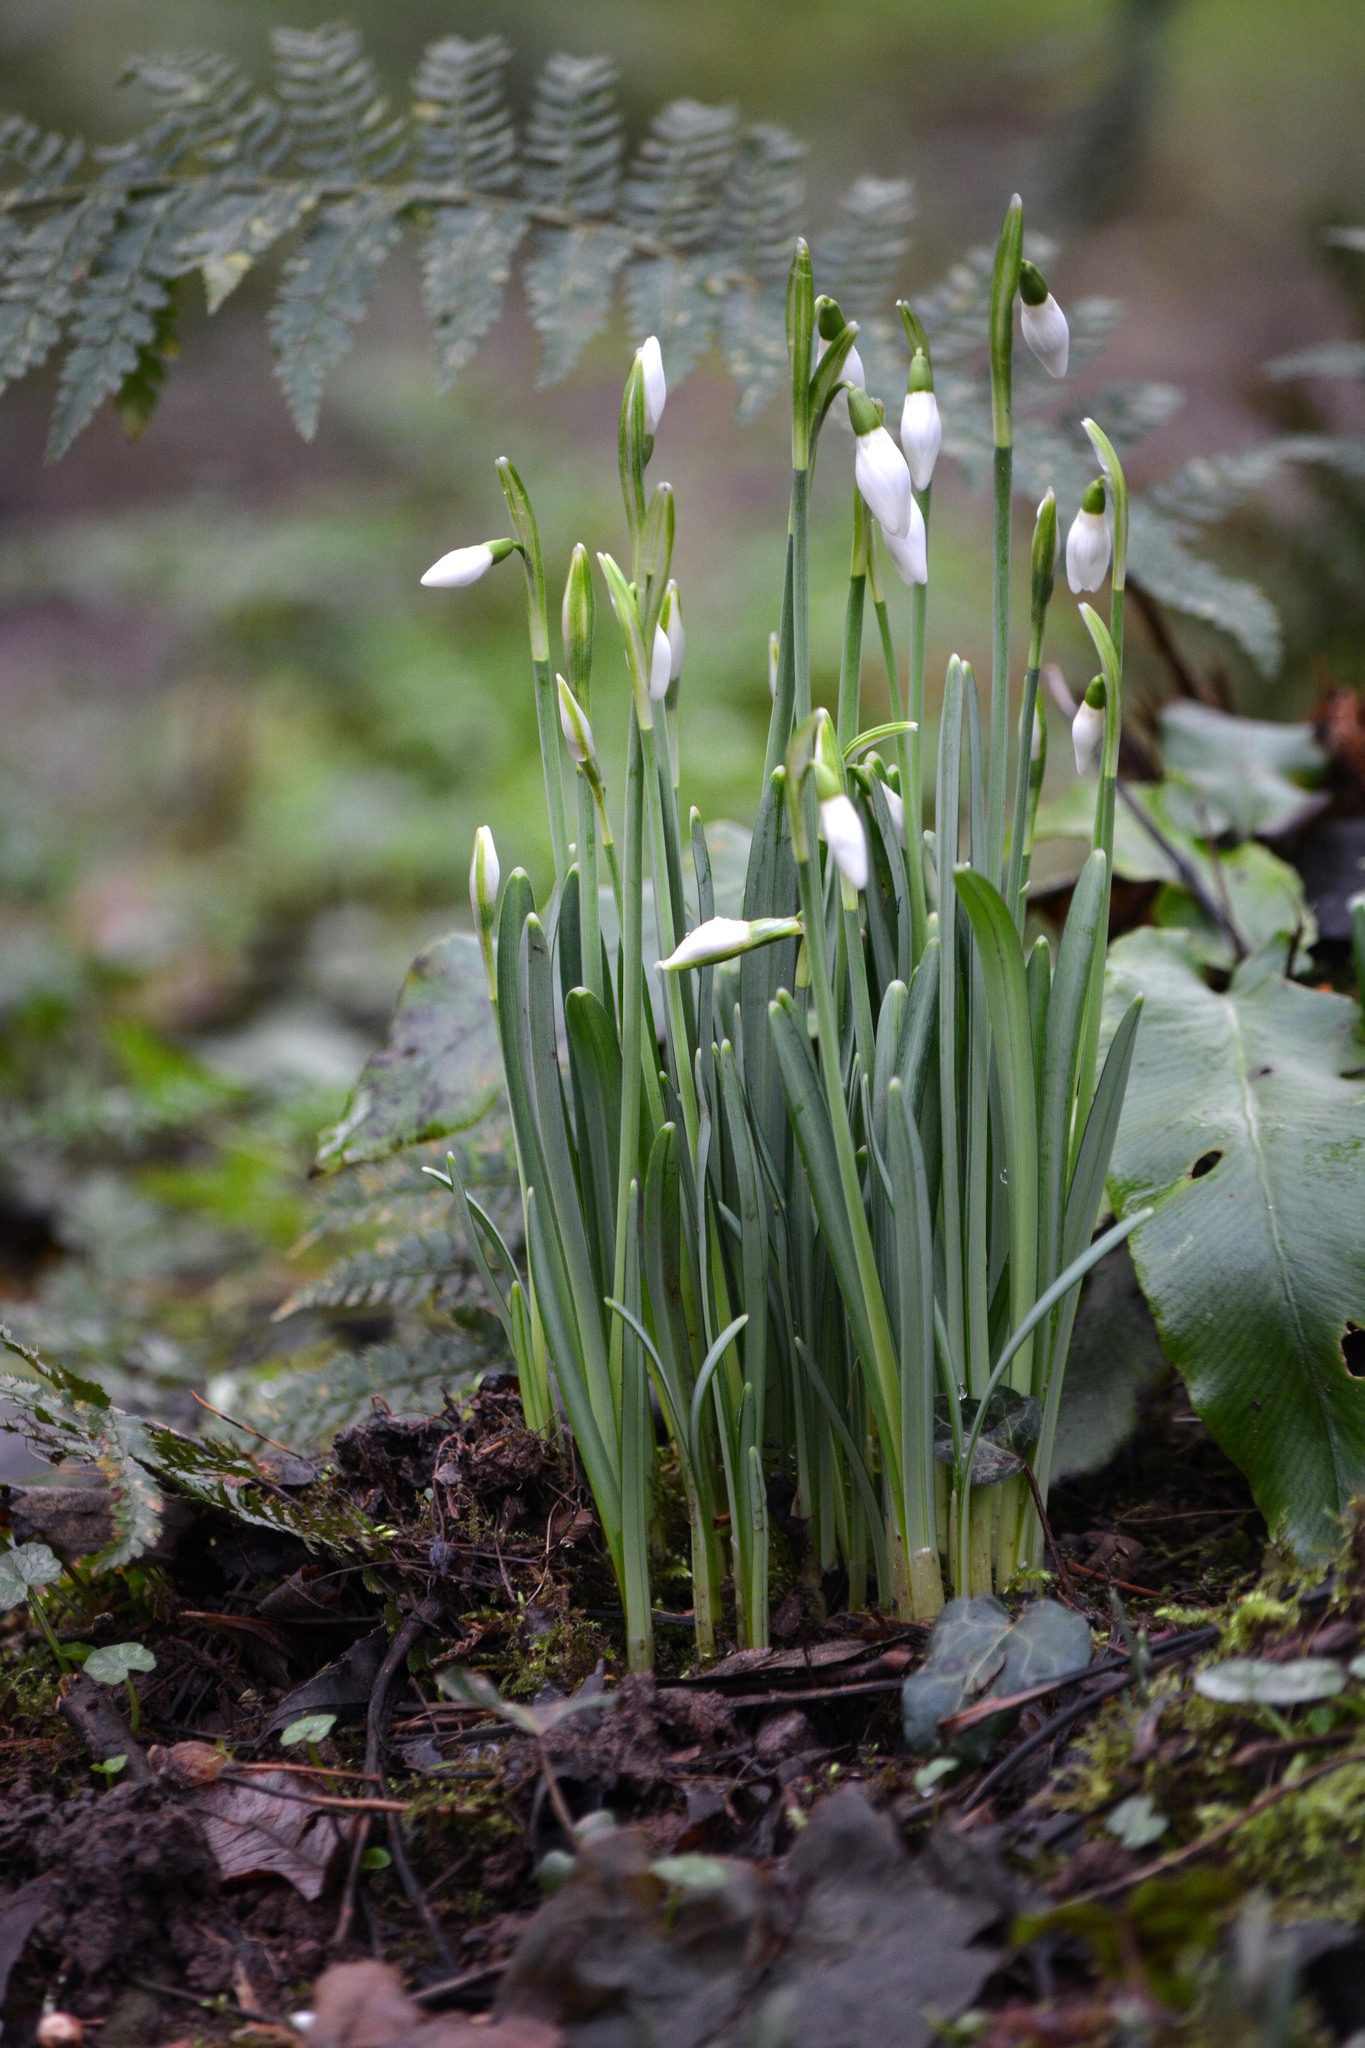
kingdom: Plantae
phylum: Tracheophyta
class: Liliopsida
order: Asparagales
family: Amaryllidaceae
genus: Galanthus
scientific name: Galanthus nivalis
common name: Snowdrop
